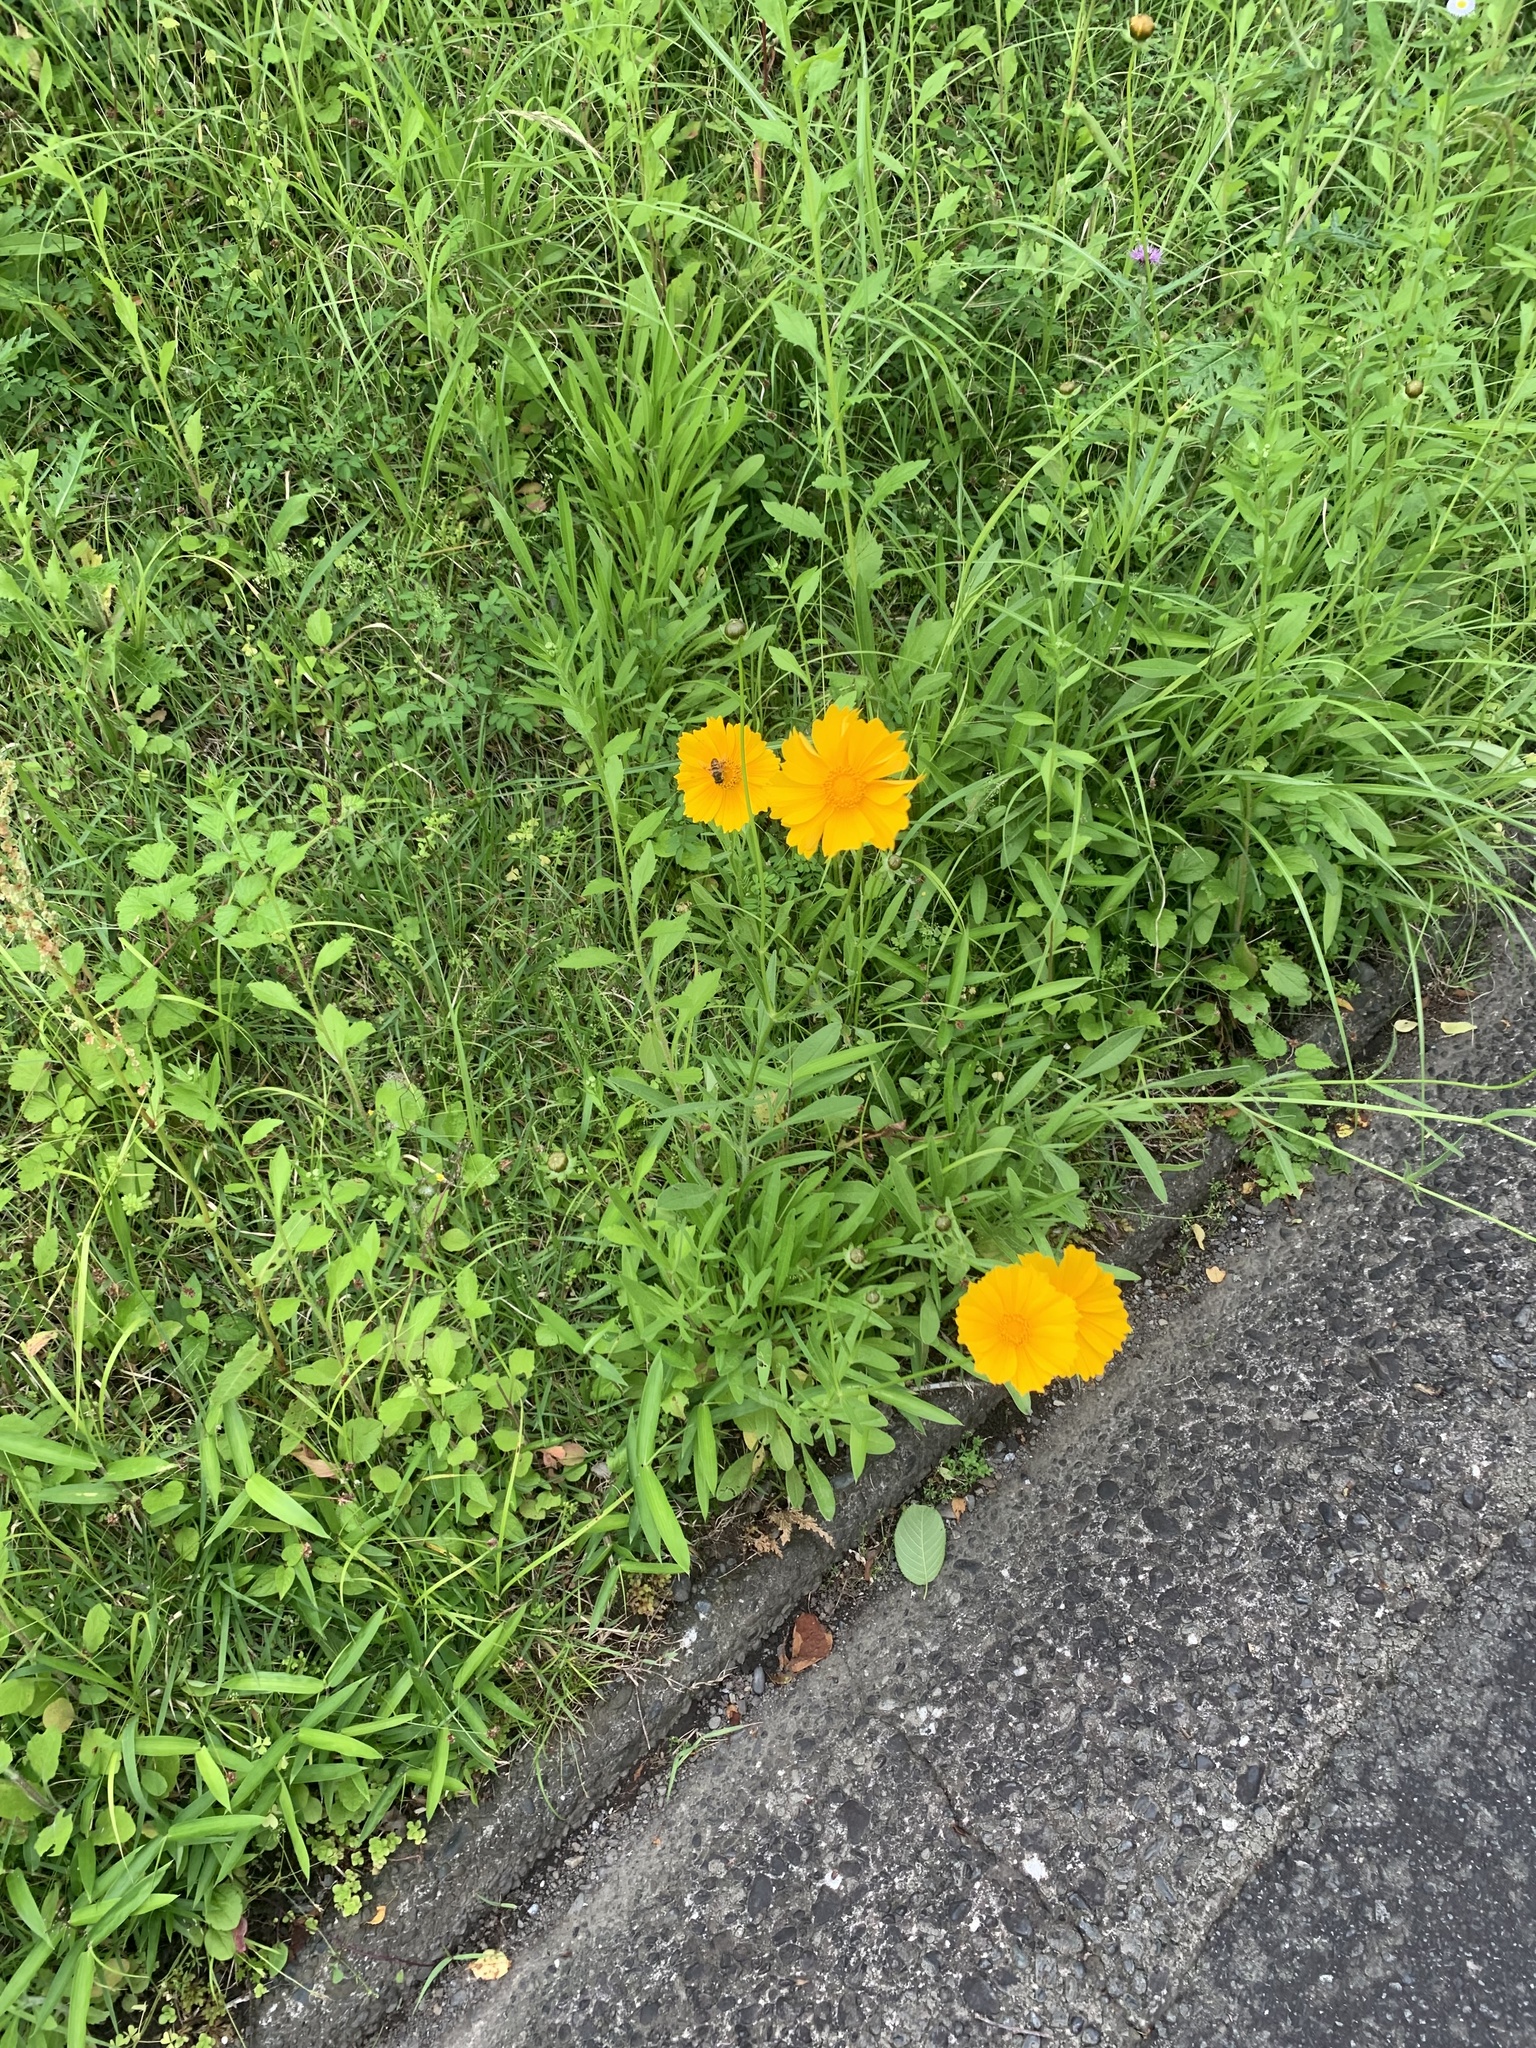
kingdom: Plantae
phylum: Tracheophyta
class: Magnoliopsida
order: Asterales
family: Asteraceae
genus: Coreopsis
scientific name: Coreopsis lanceolata
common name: Garden coreopsis
